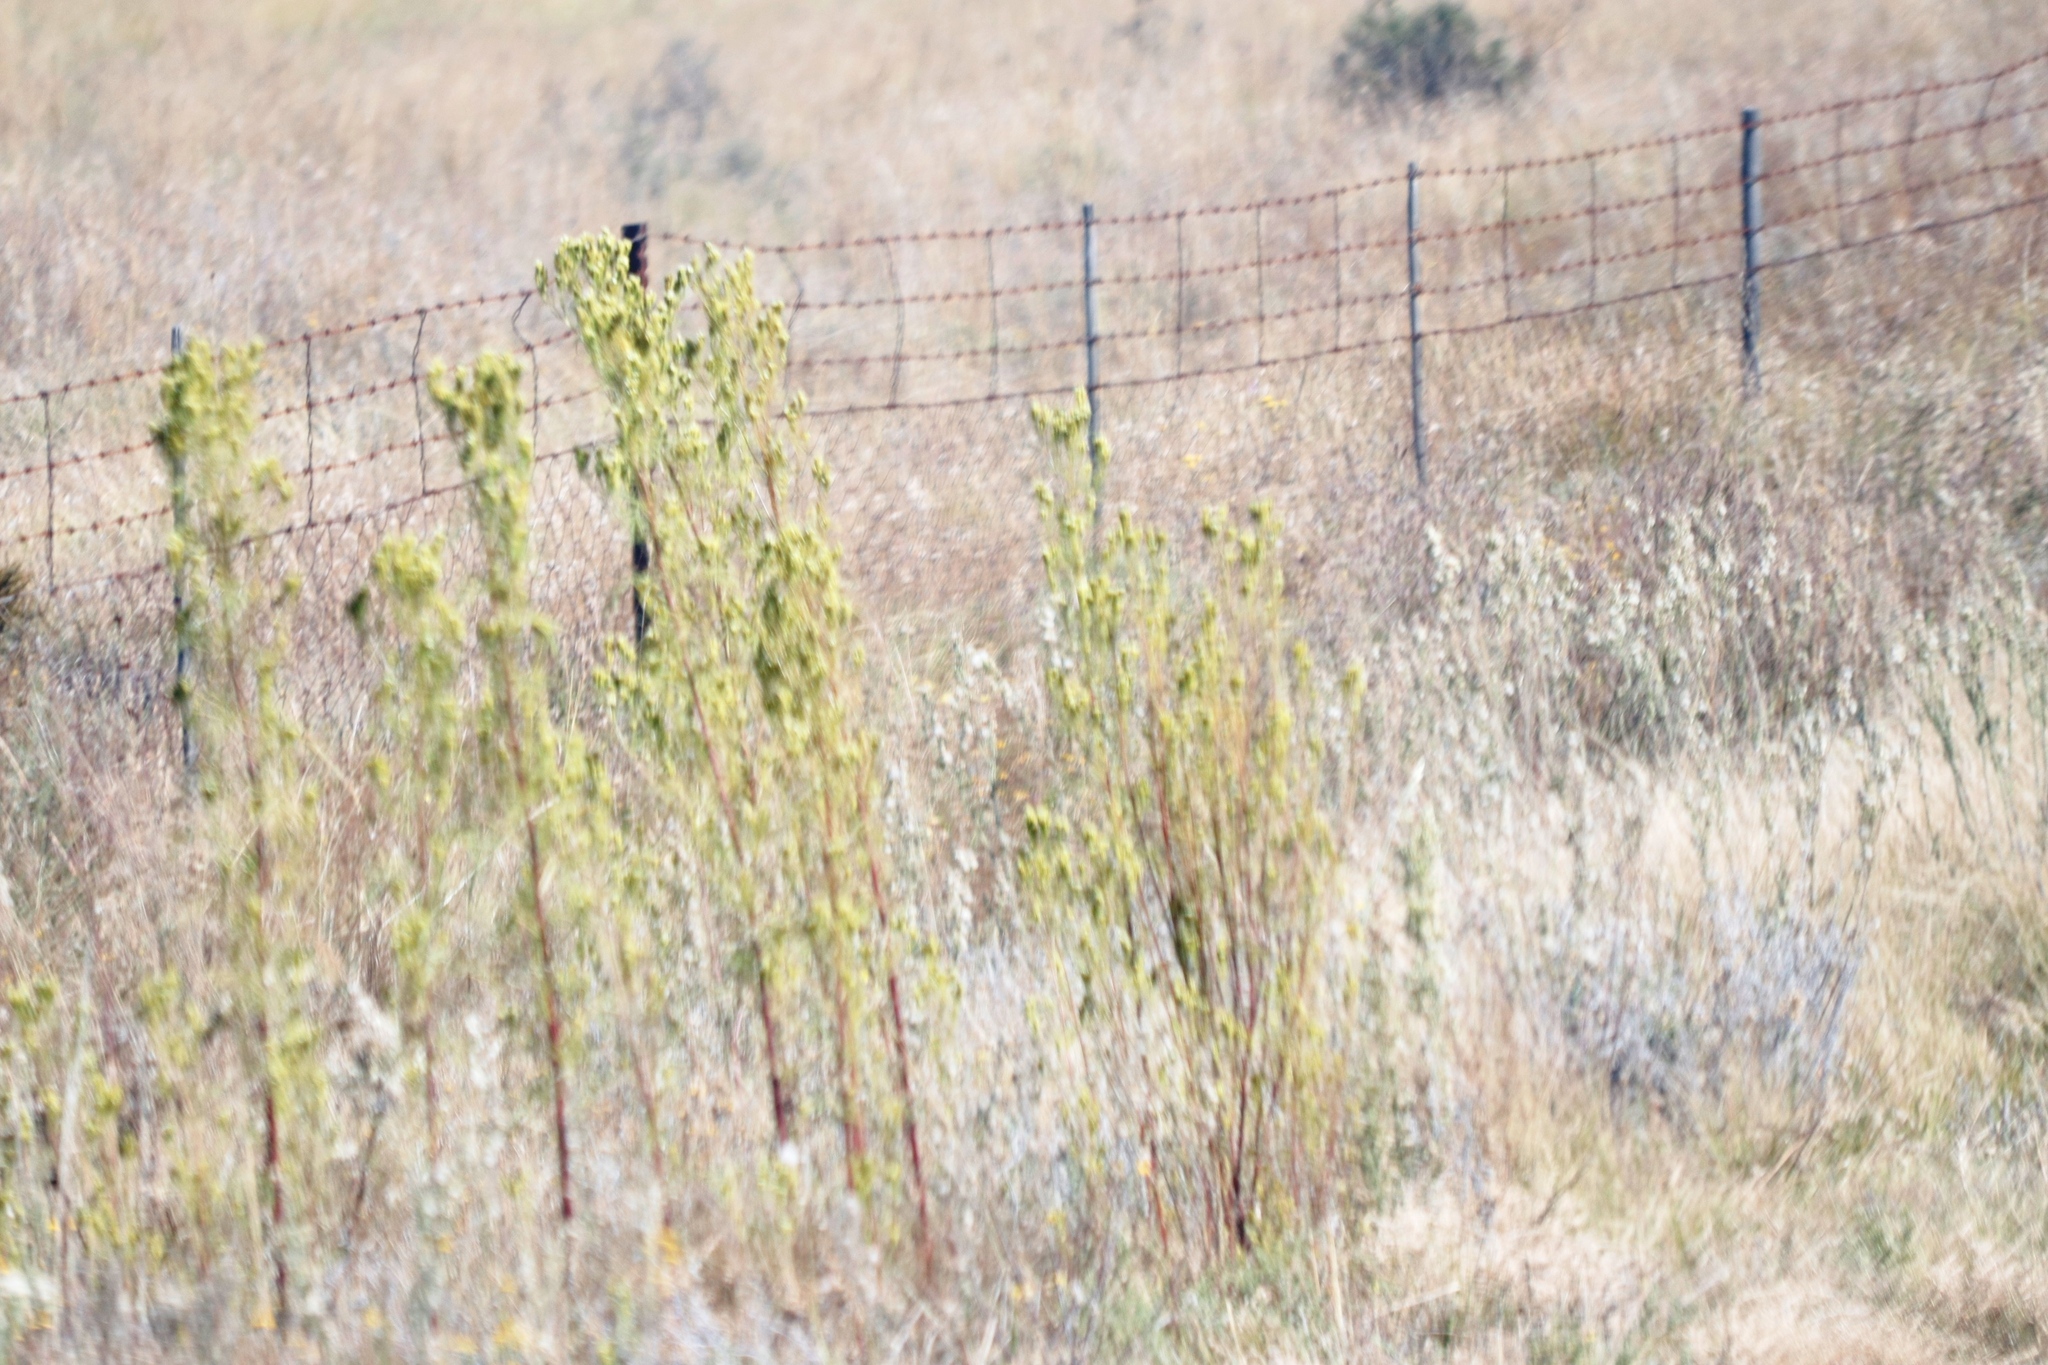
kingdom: Plantae
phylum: Tracheophyta
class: Magnoliopsida
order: Asterales
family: Asteraceae
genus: Tagetes
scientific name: Tagetes minuta
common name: Muster john henry
